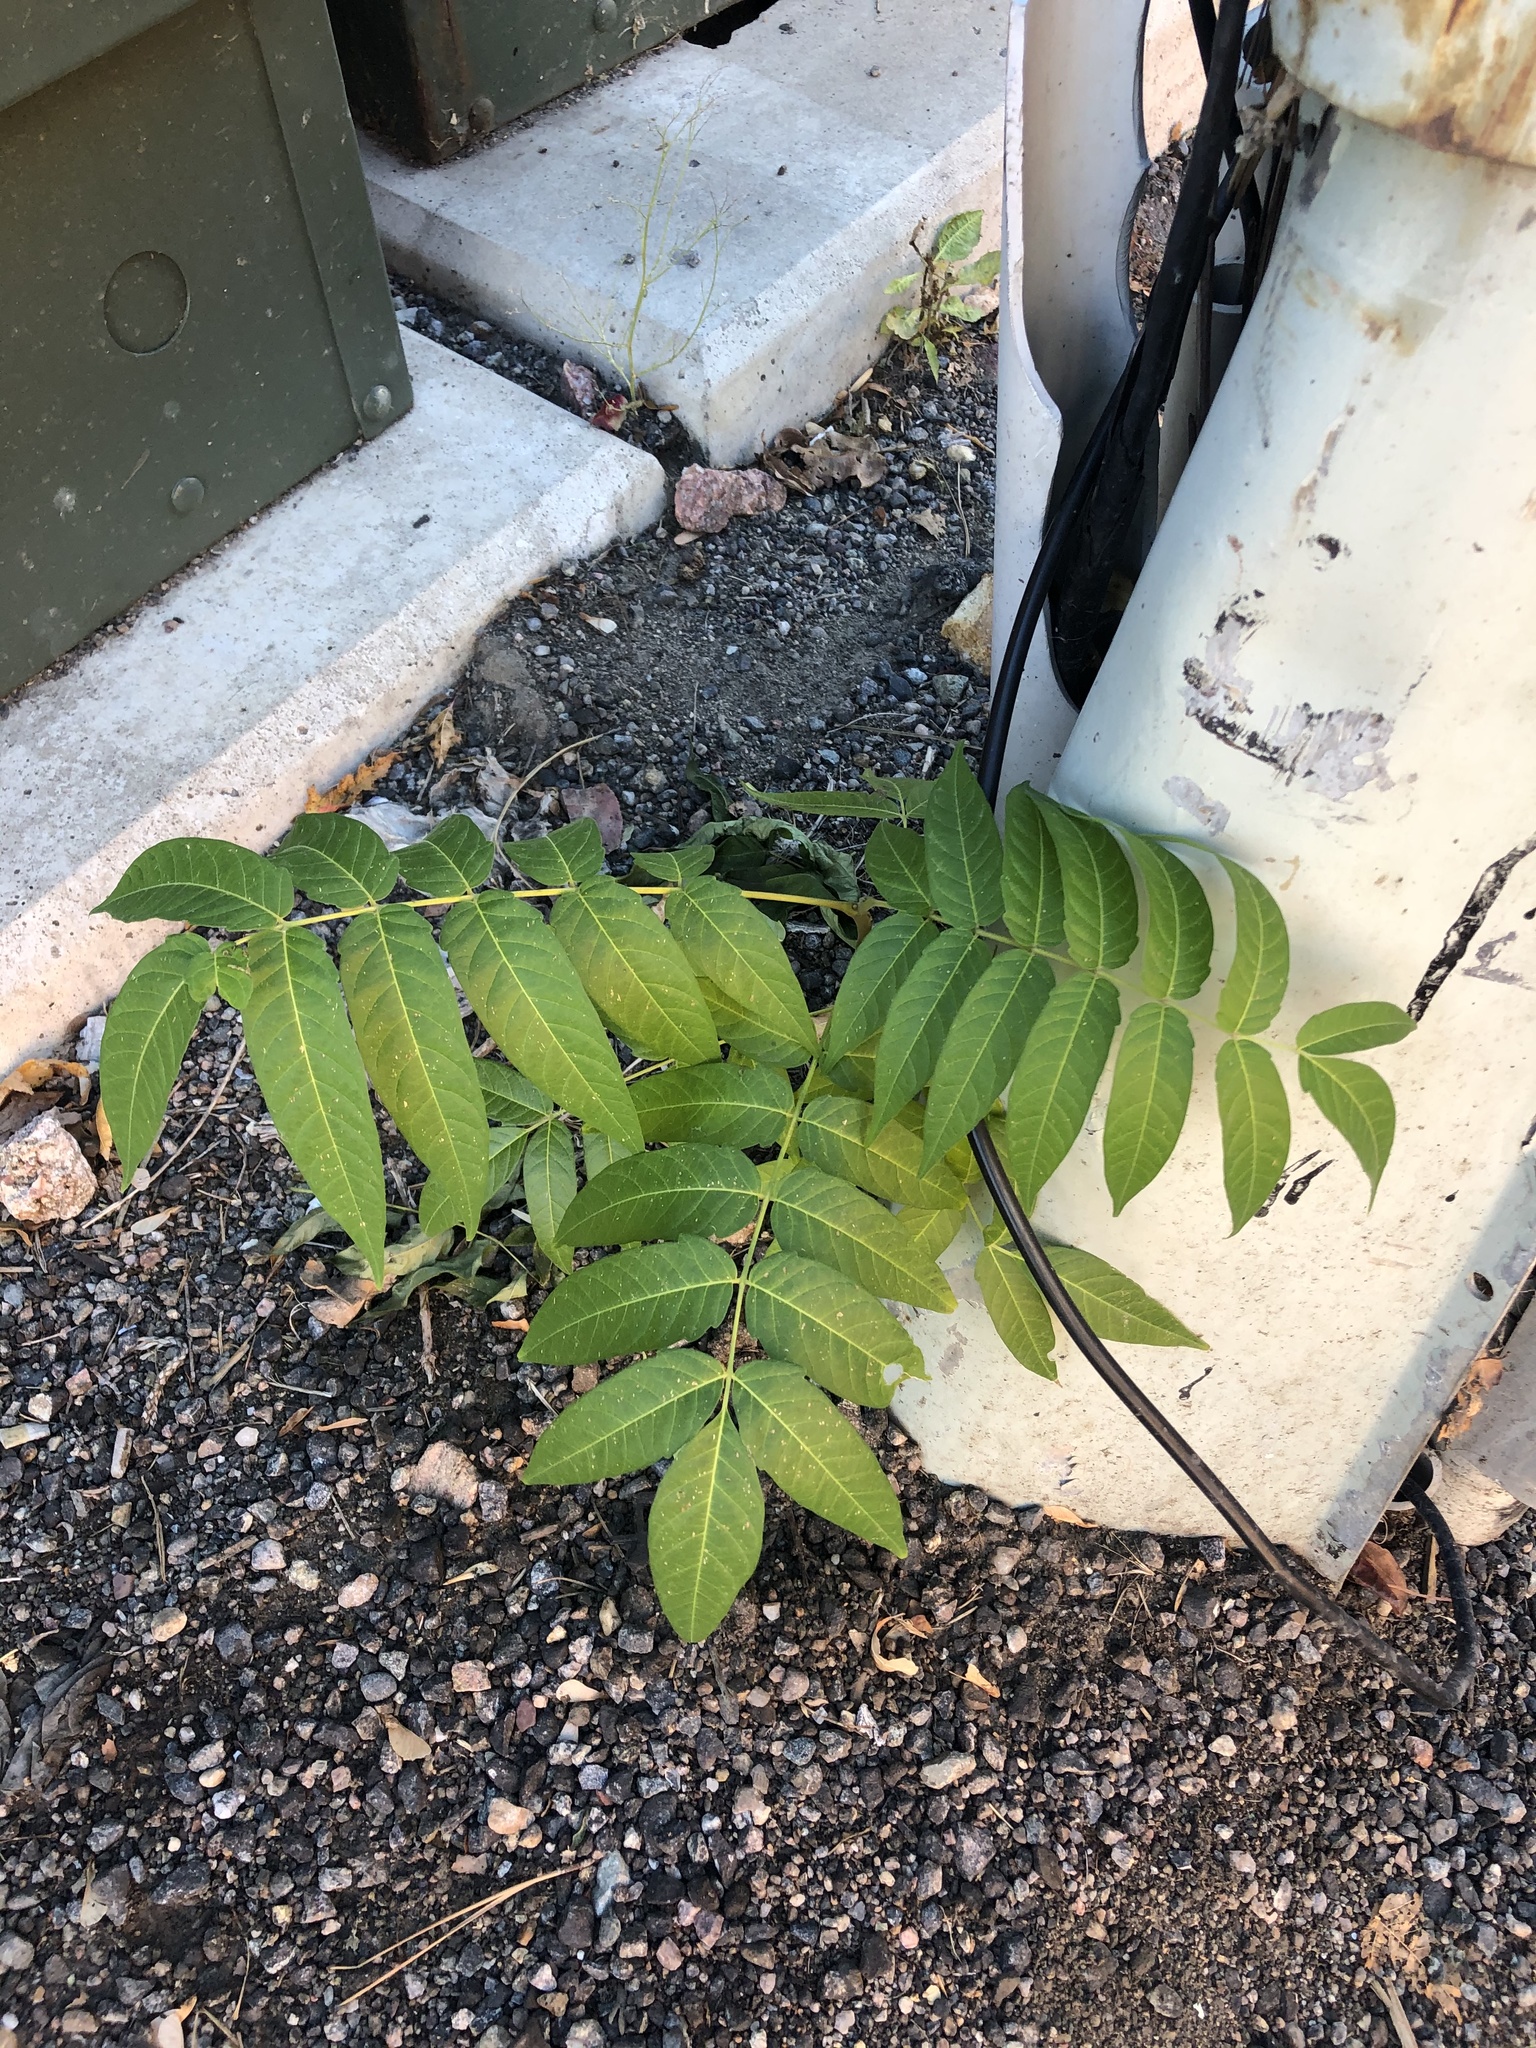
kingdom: Plantae
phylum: Tracheophyta
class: Magnoliopsida
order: Sapindales
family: Simaroubaceae
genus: Ailanthus
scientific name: Ailanthus altissima
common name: Tree-of-heaven
